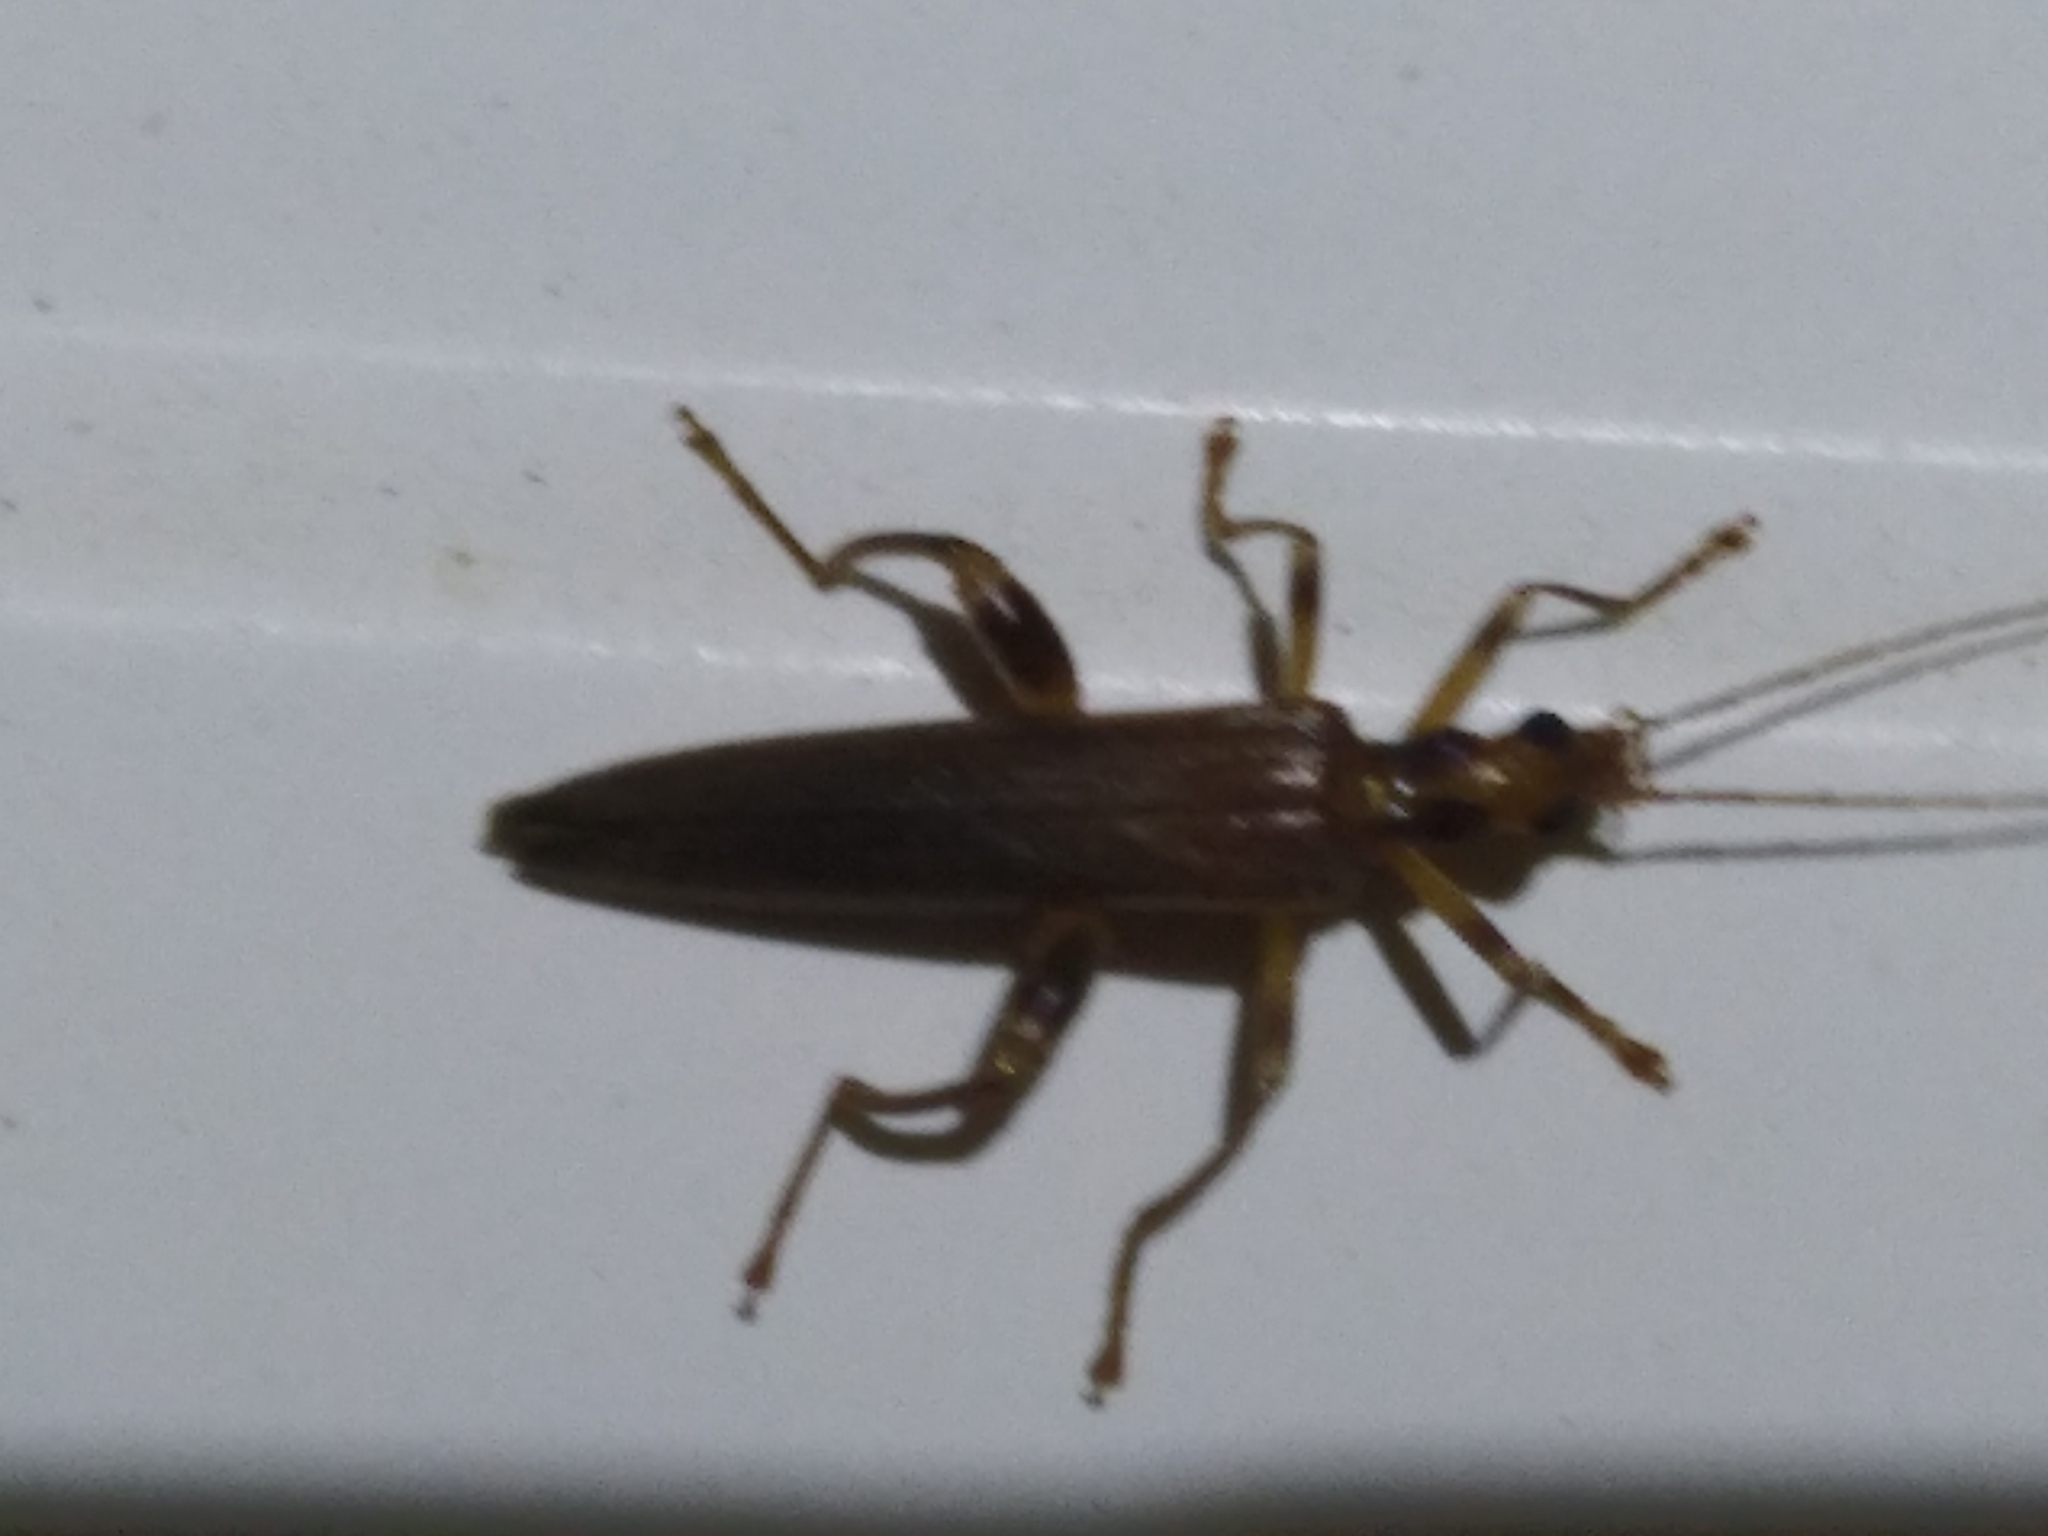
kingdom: Animalia
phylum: Arthropoda
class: Insecta
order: Coleoptera
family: Oedemeridae
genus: Oedemera
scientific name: Oedemera femoralis
